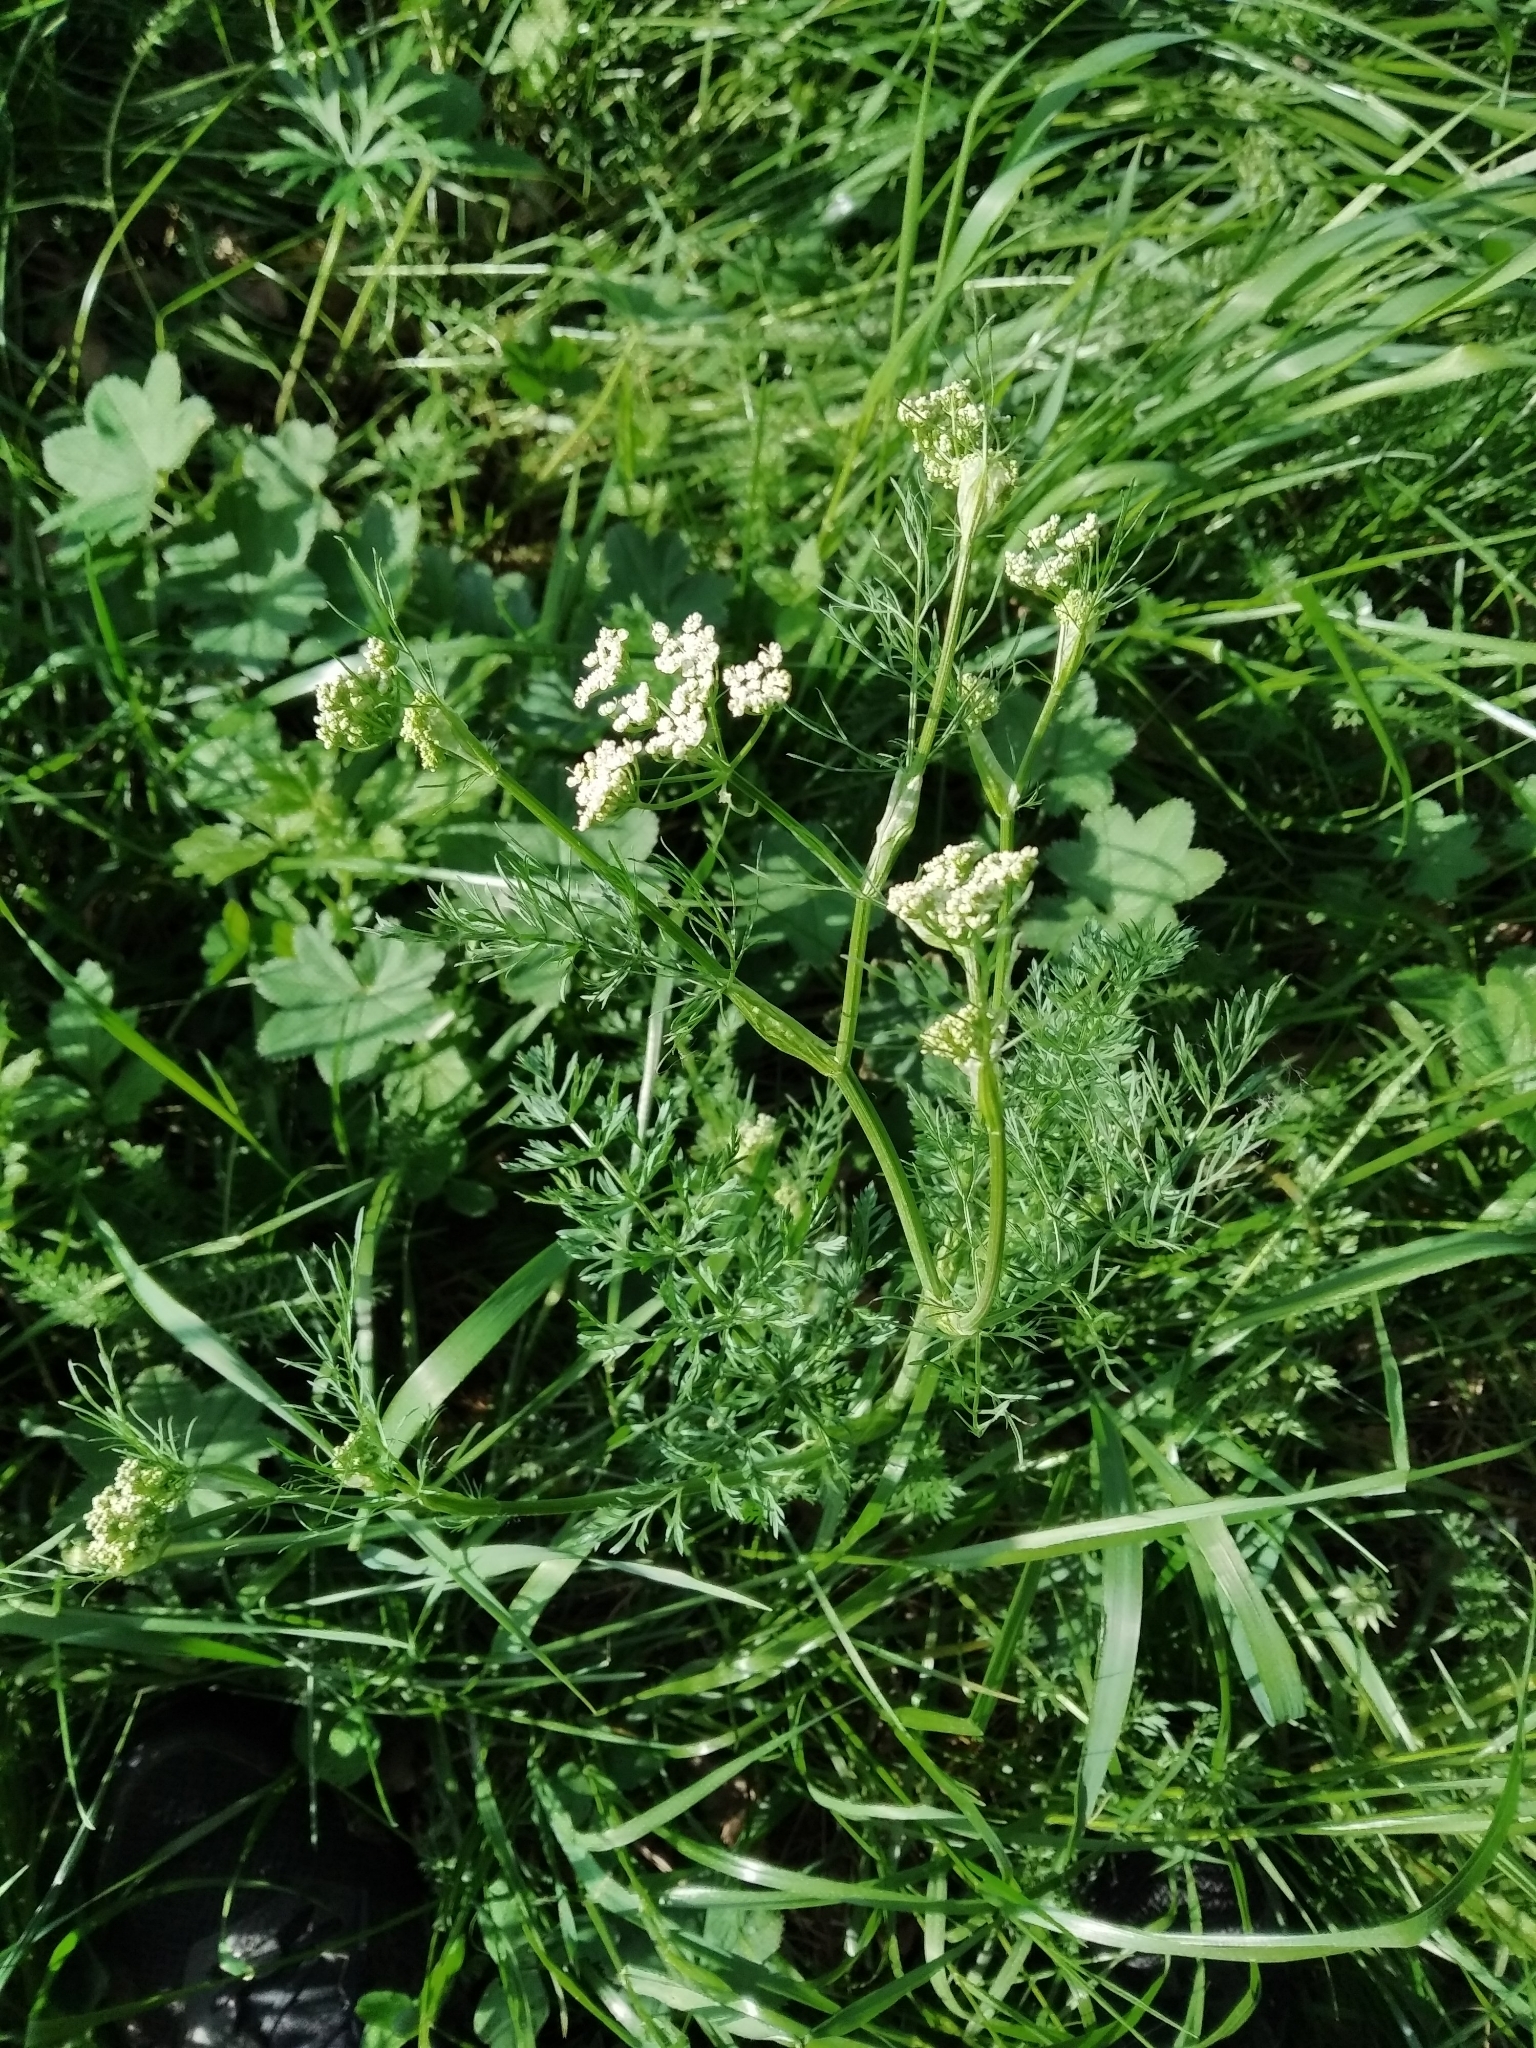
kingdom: Plantae
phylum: Tracheophyta
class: Magnoliopsida
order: Apiales
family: Apiaceae
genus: Carum
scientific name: Carum carvi
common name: Caraway
